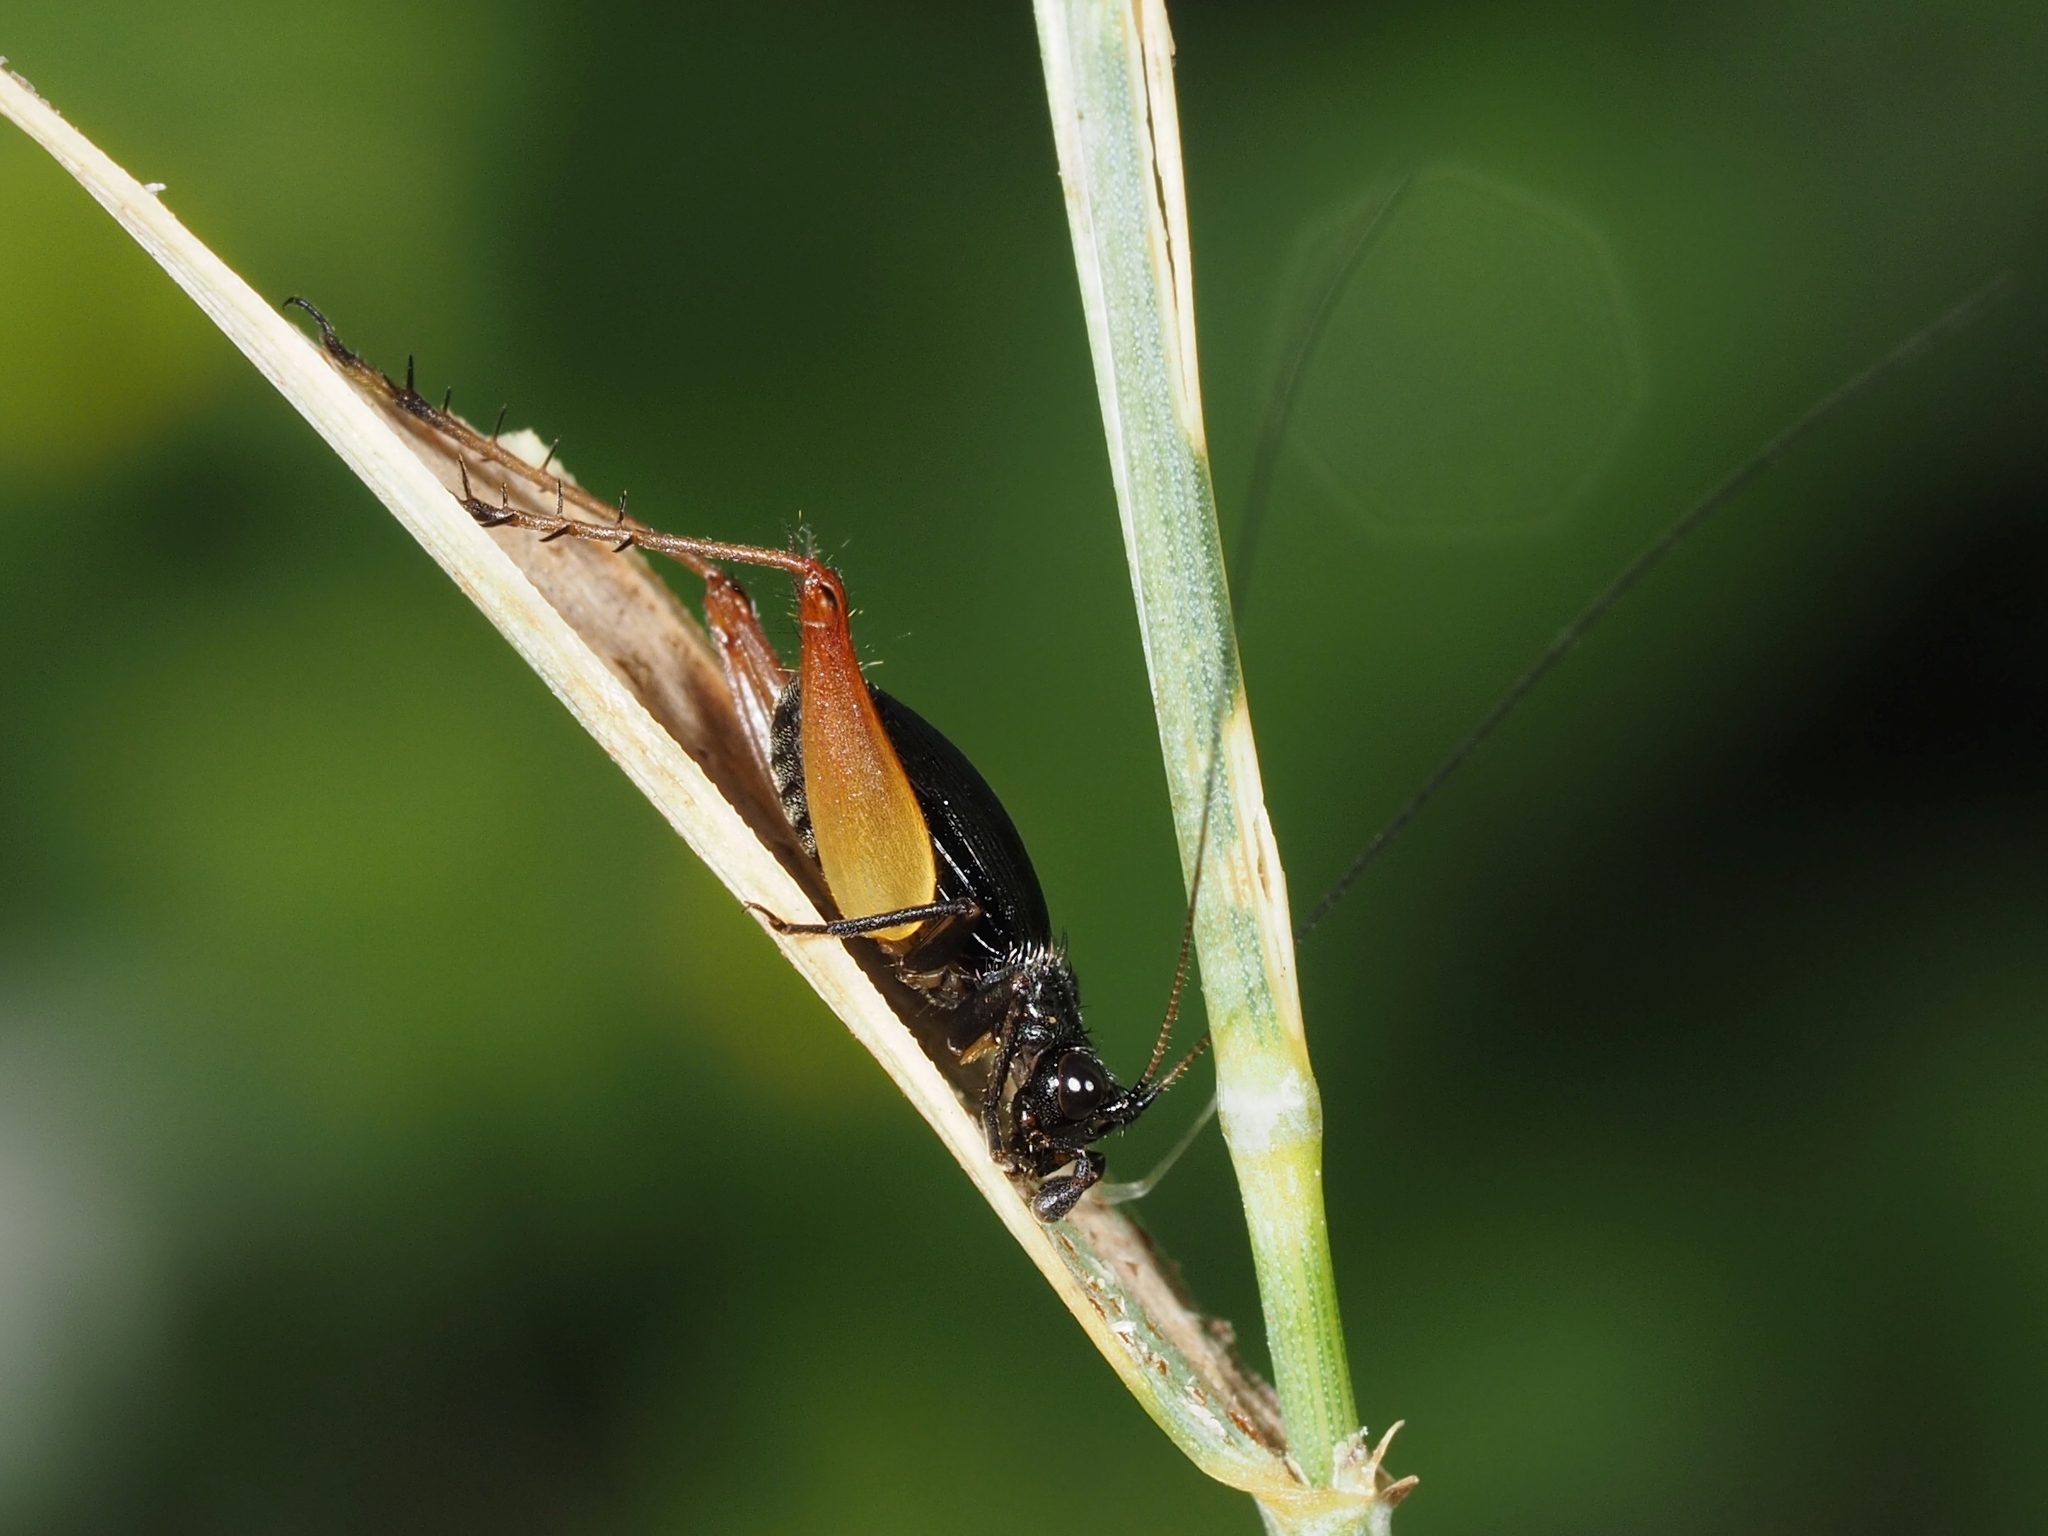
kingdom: Animalia
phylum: Arthropoda
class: Insecta
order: Orthoptera
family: Trigonidiidae
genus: Trigonidium
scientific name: Trigonidium cicindeloides
